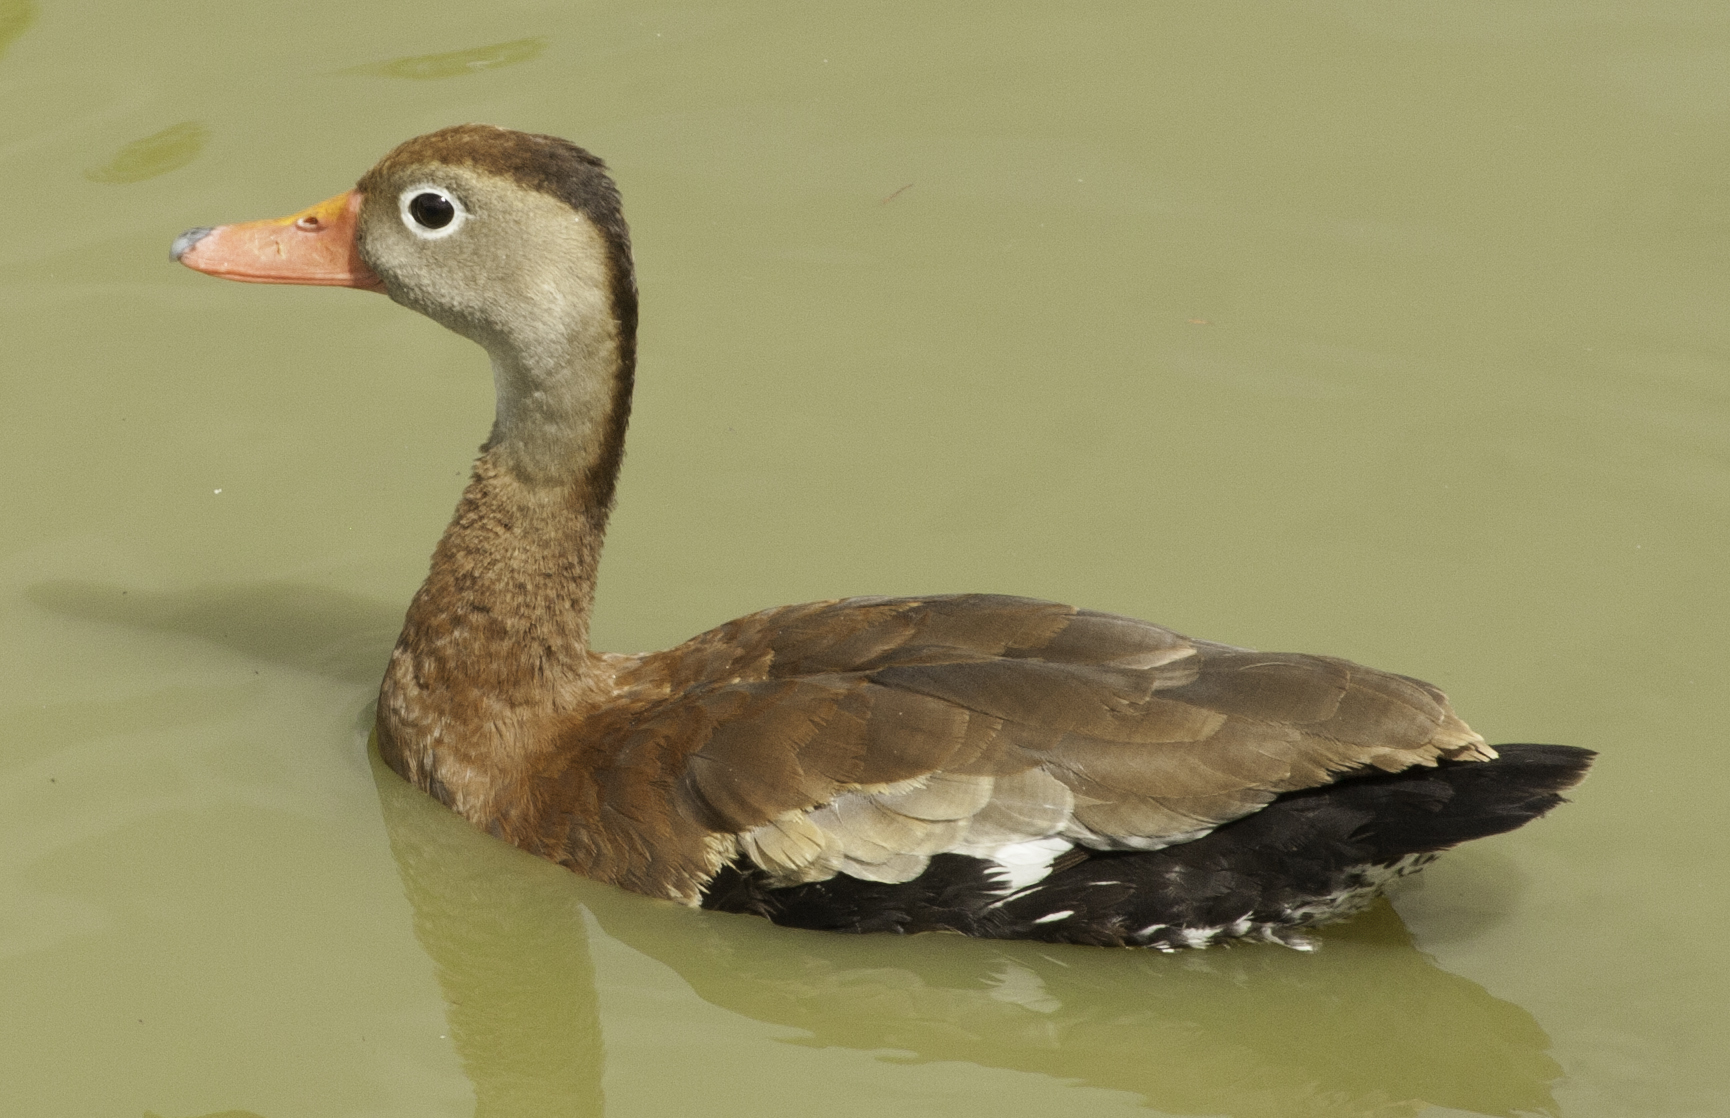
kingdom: Animalia
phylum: Chordata
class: Aves
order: Anseriformes
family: Anatidae
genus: Dendrocygna
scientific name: Dendrocygna autumnalis
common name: Black-bellied whistling duck
